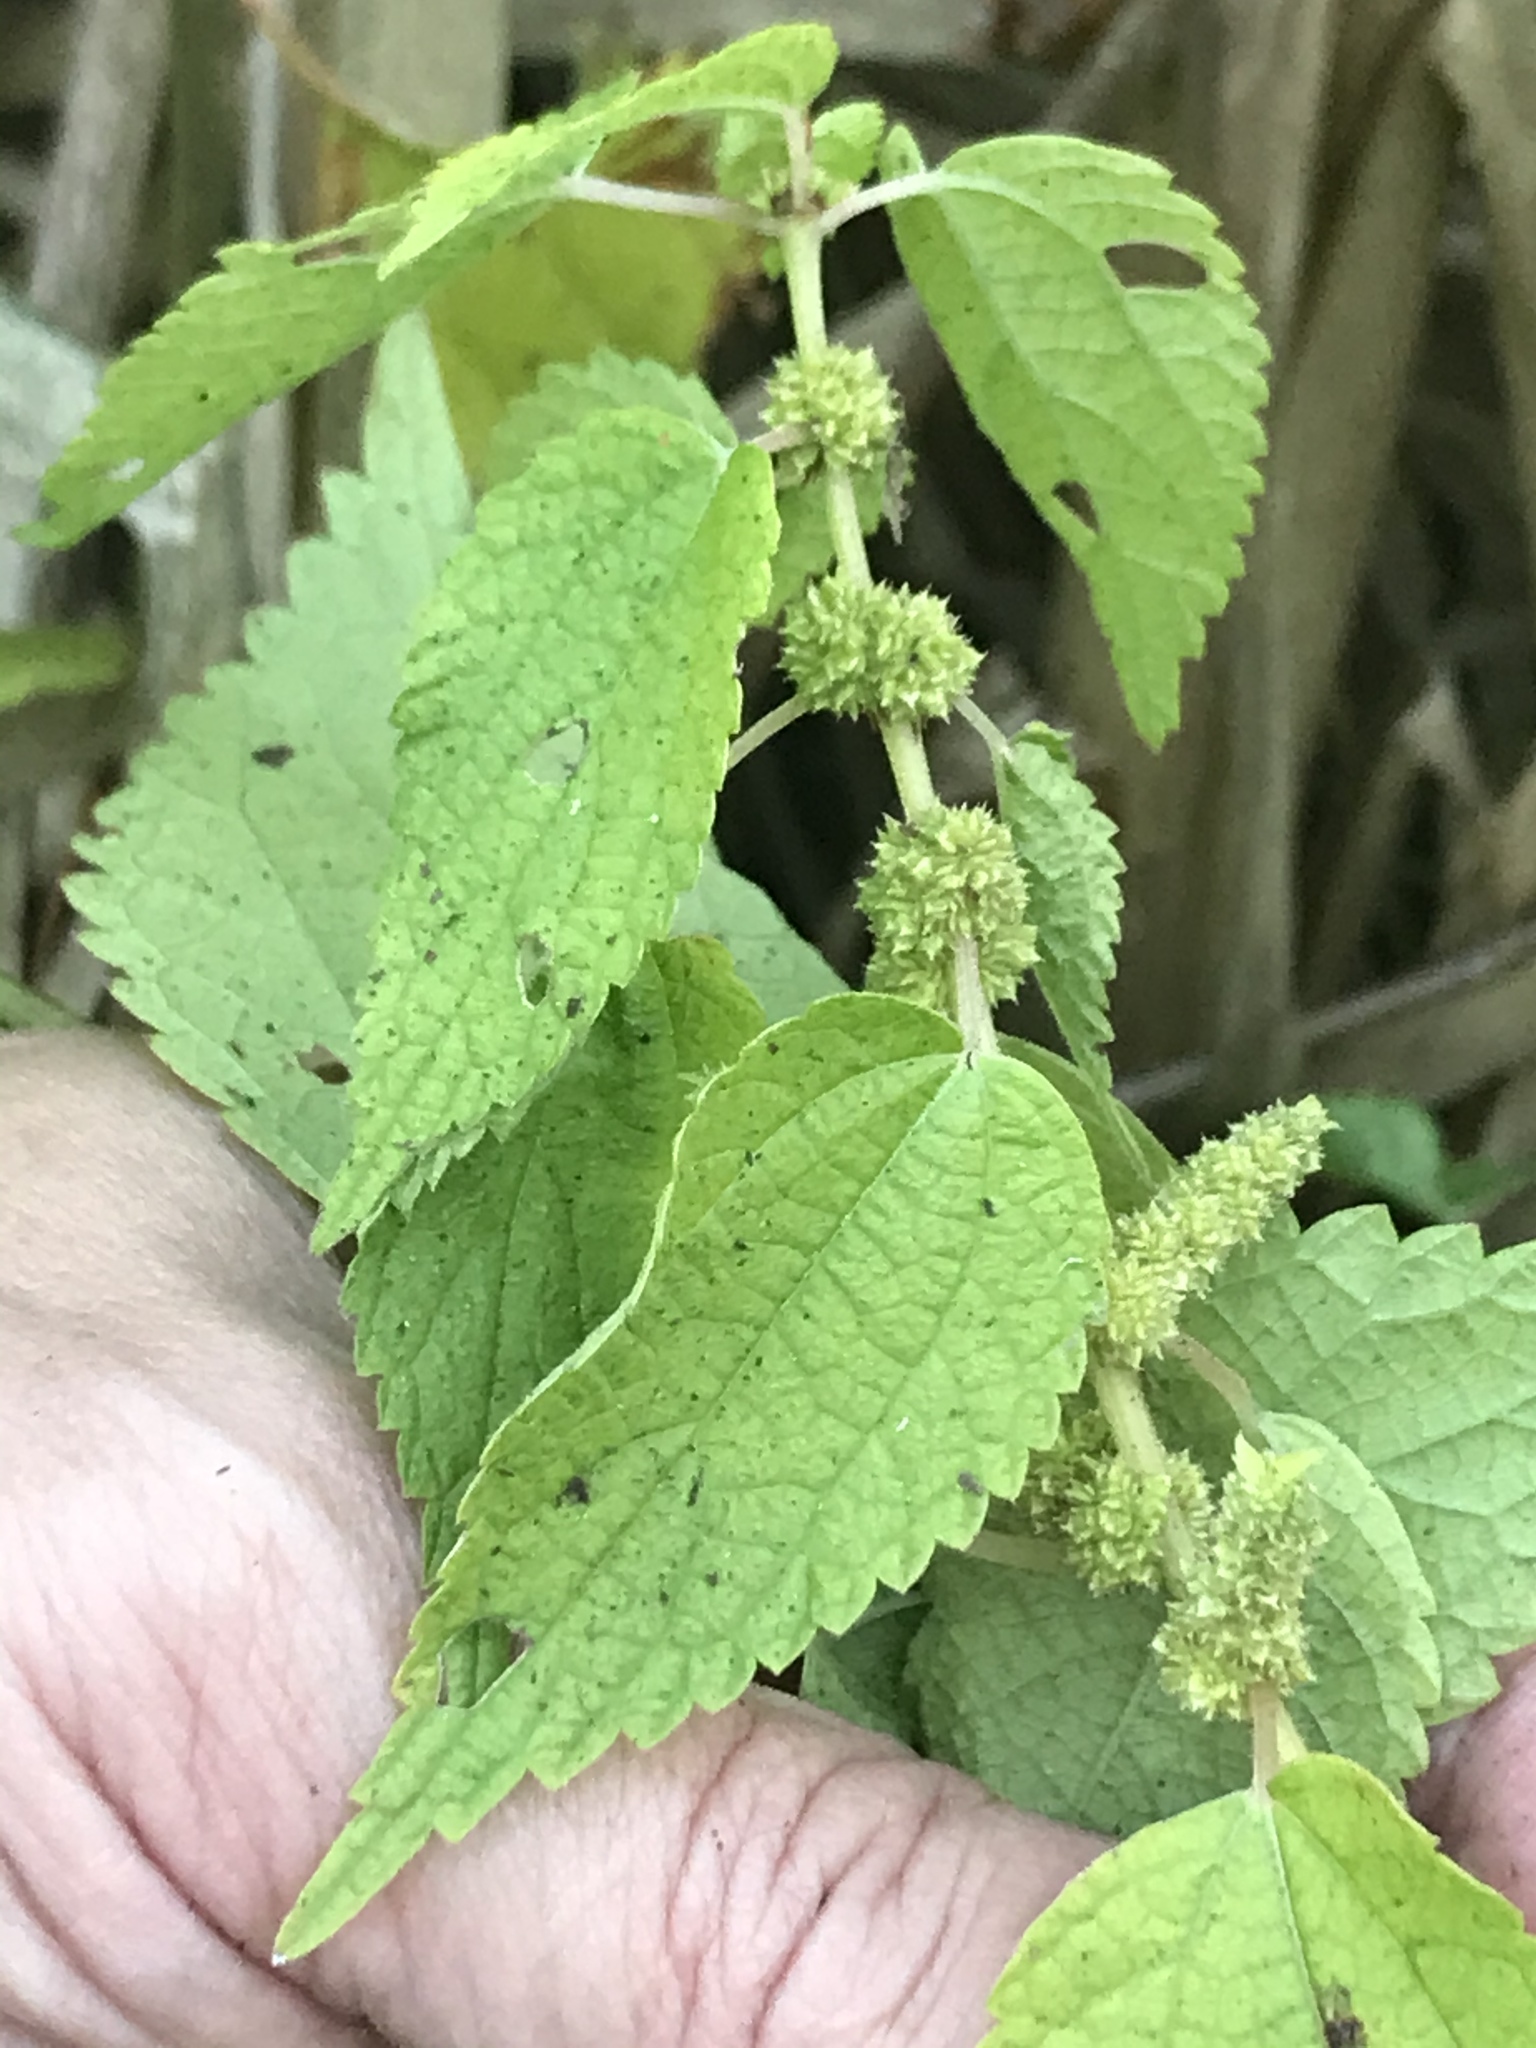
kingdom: Plantae
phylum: Tracheophyta
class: Magnoliopsida
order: Rosales
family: Urticaceae
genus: Boehmeria
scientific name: Boehmeria cylindrica
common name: Bog-hemp
